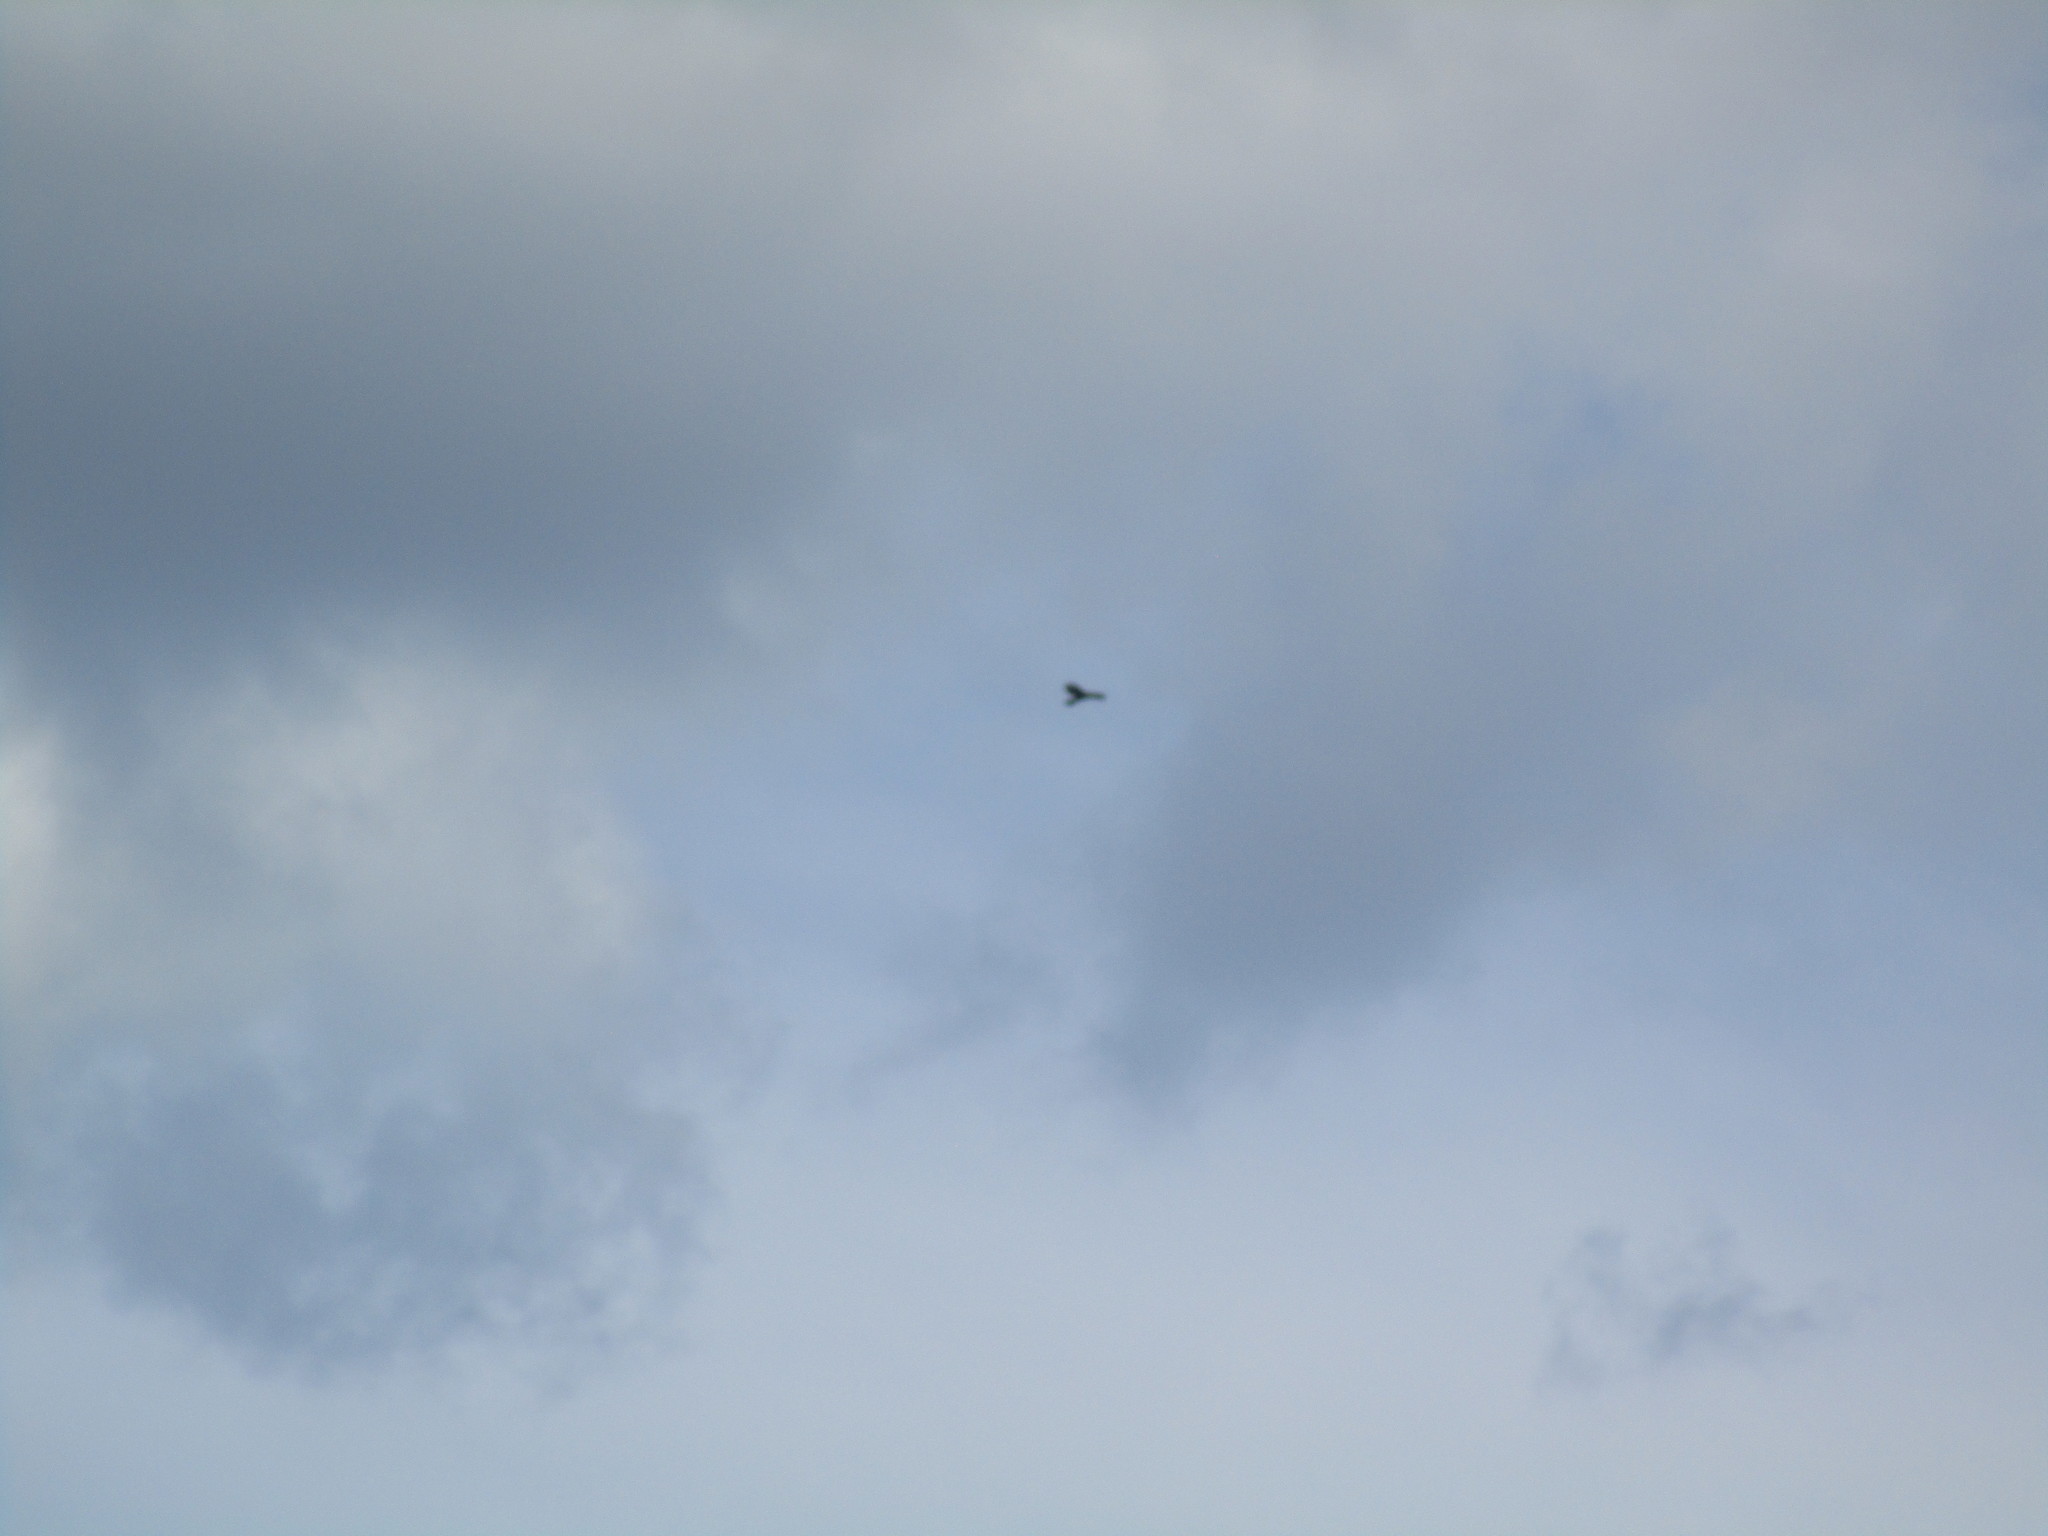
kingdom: Animalia
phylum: Chordata
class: Aves
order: Accipitriformes
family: Accipitridae
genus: Buteo
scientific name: Buteo lineatus
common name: Red-shouldered hawk
